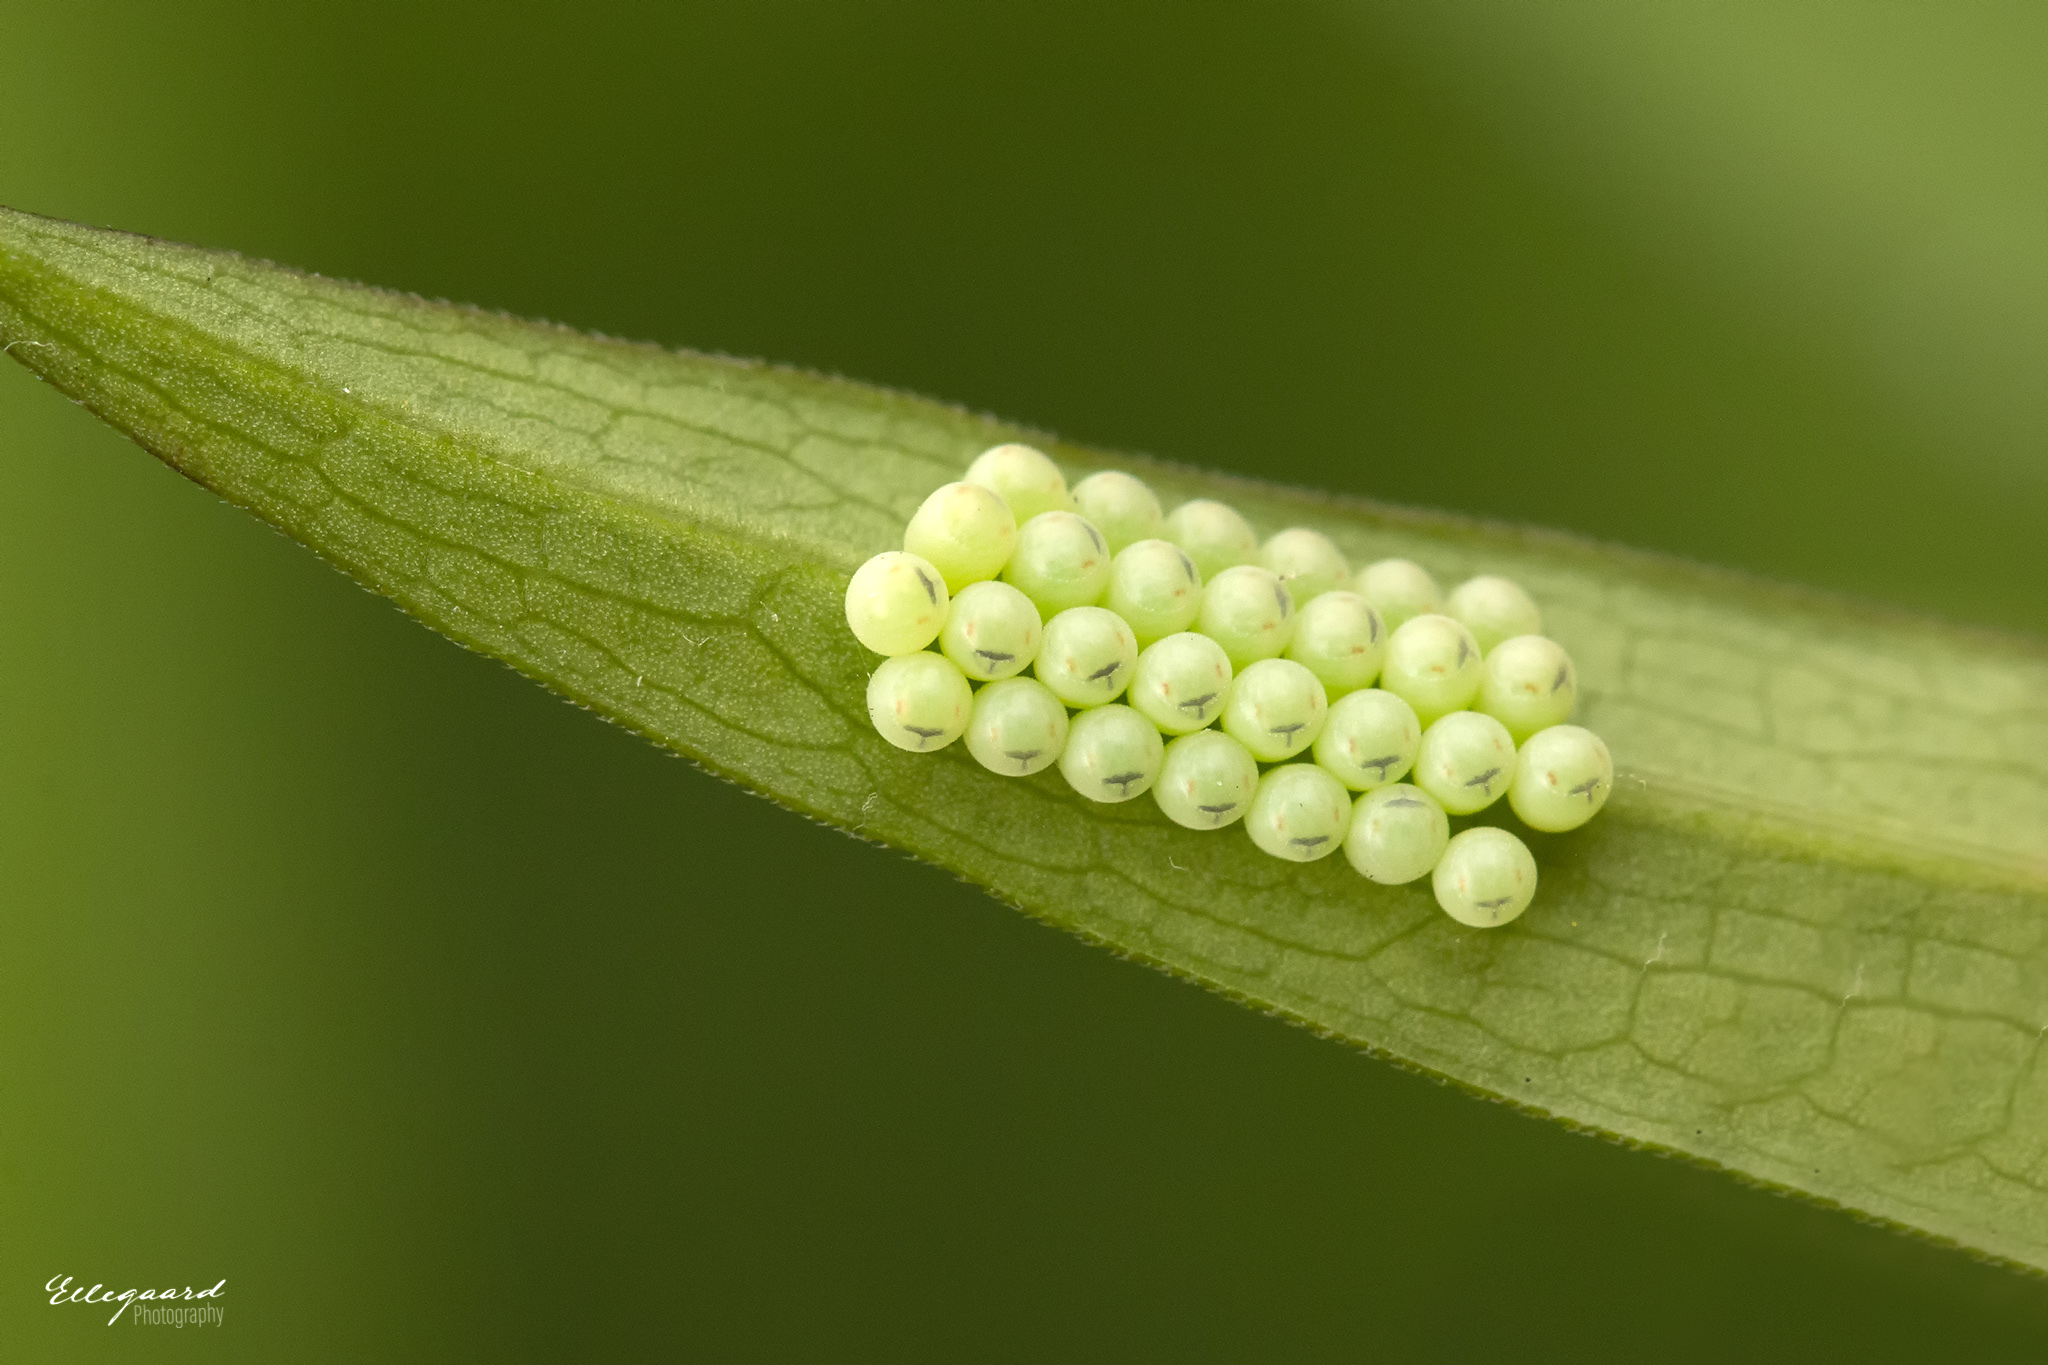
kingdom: Animalia
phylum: Arthropoda
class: Insecta
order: Hemiptera
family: Pentatomidae
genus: Palomena
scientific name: Palomena prasina
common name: Green shieldbug
